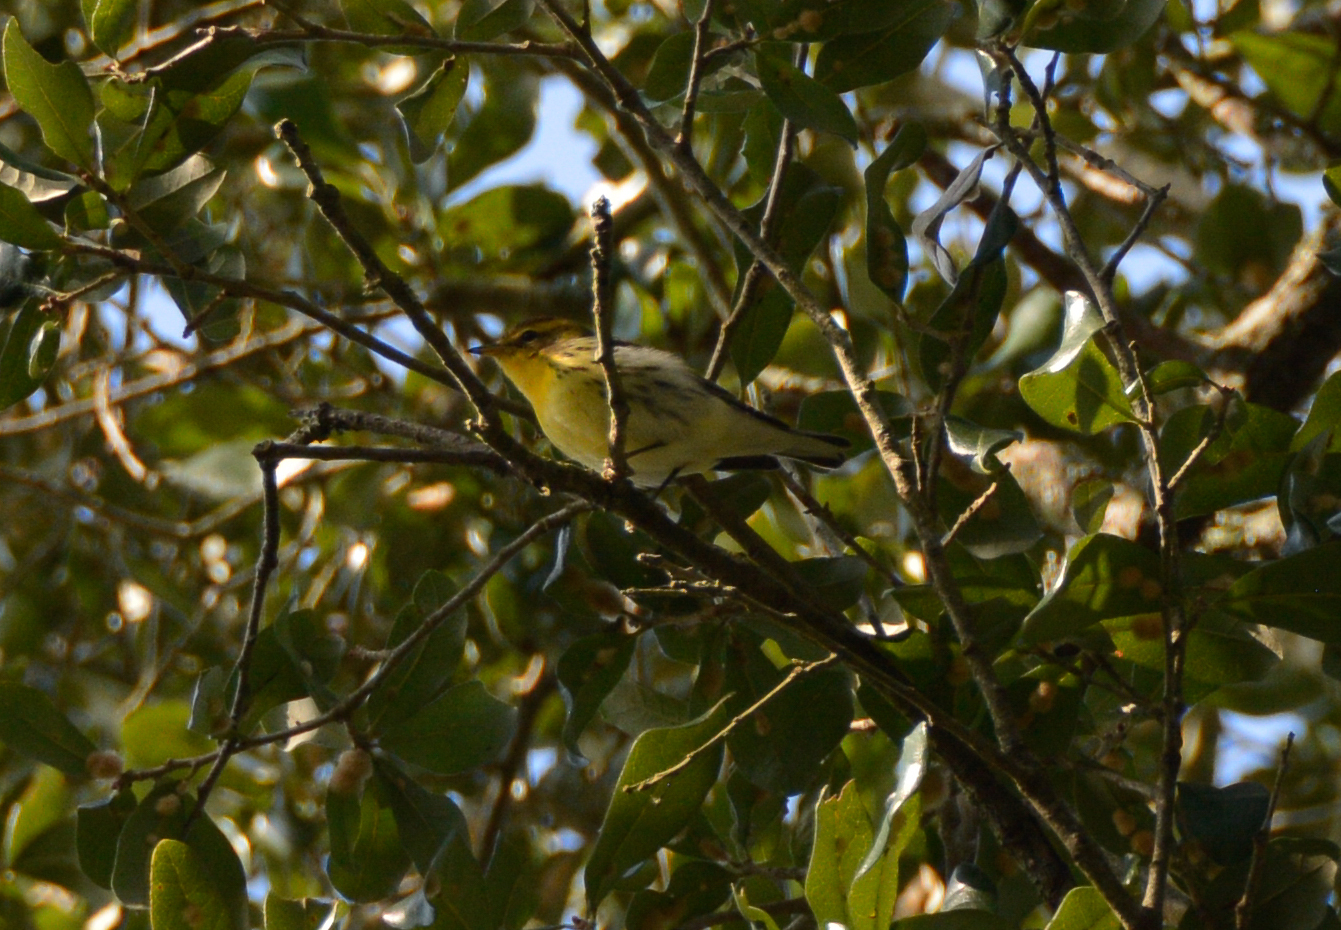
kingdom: Animalia
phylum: Chordata
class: Aves
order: Passeriformes
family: Parulidae
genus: Setophaga
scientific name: Setophaga fusca
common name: Blackburnian warbler
